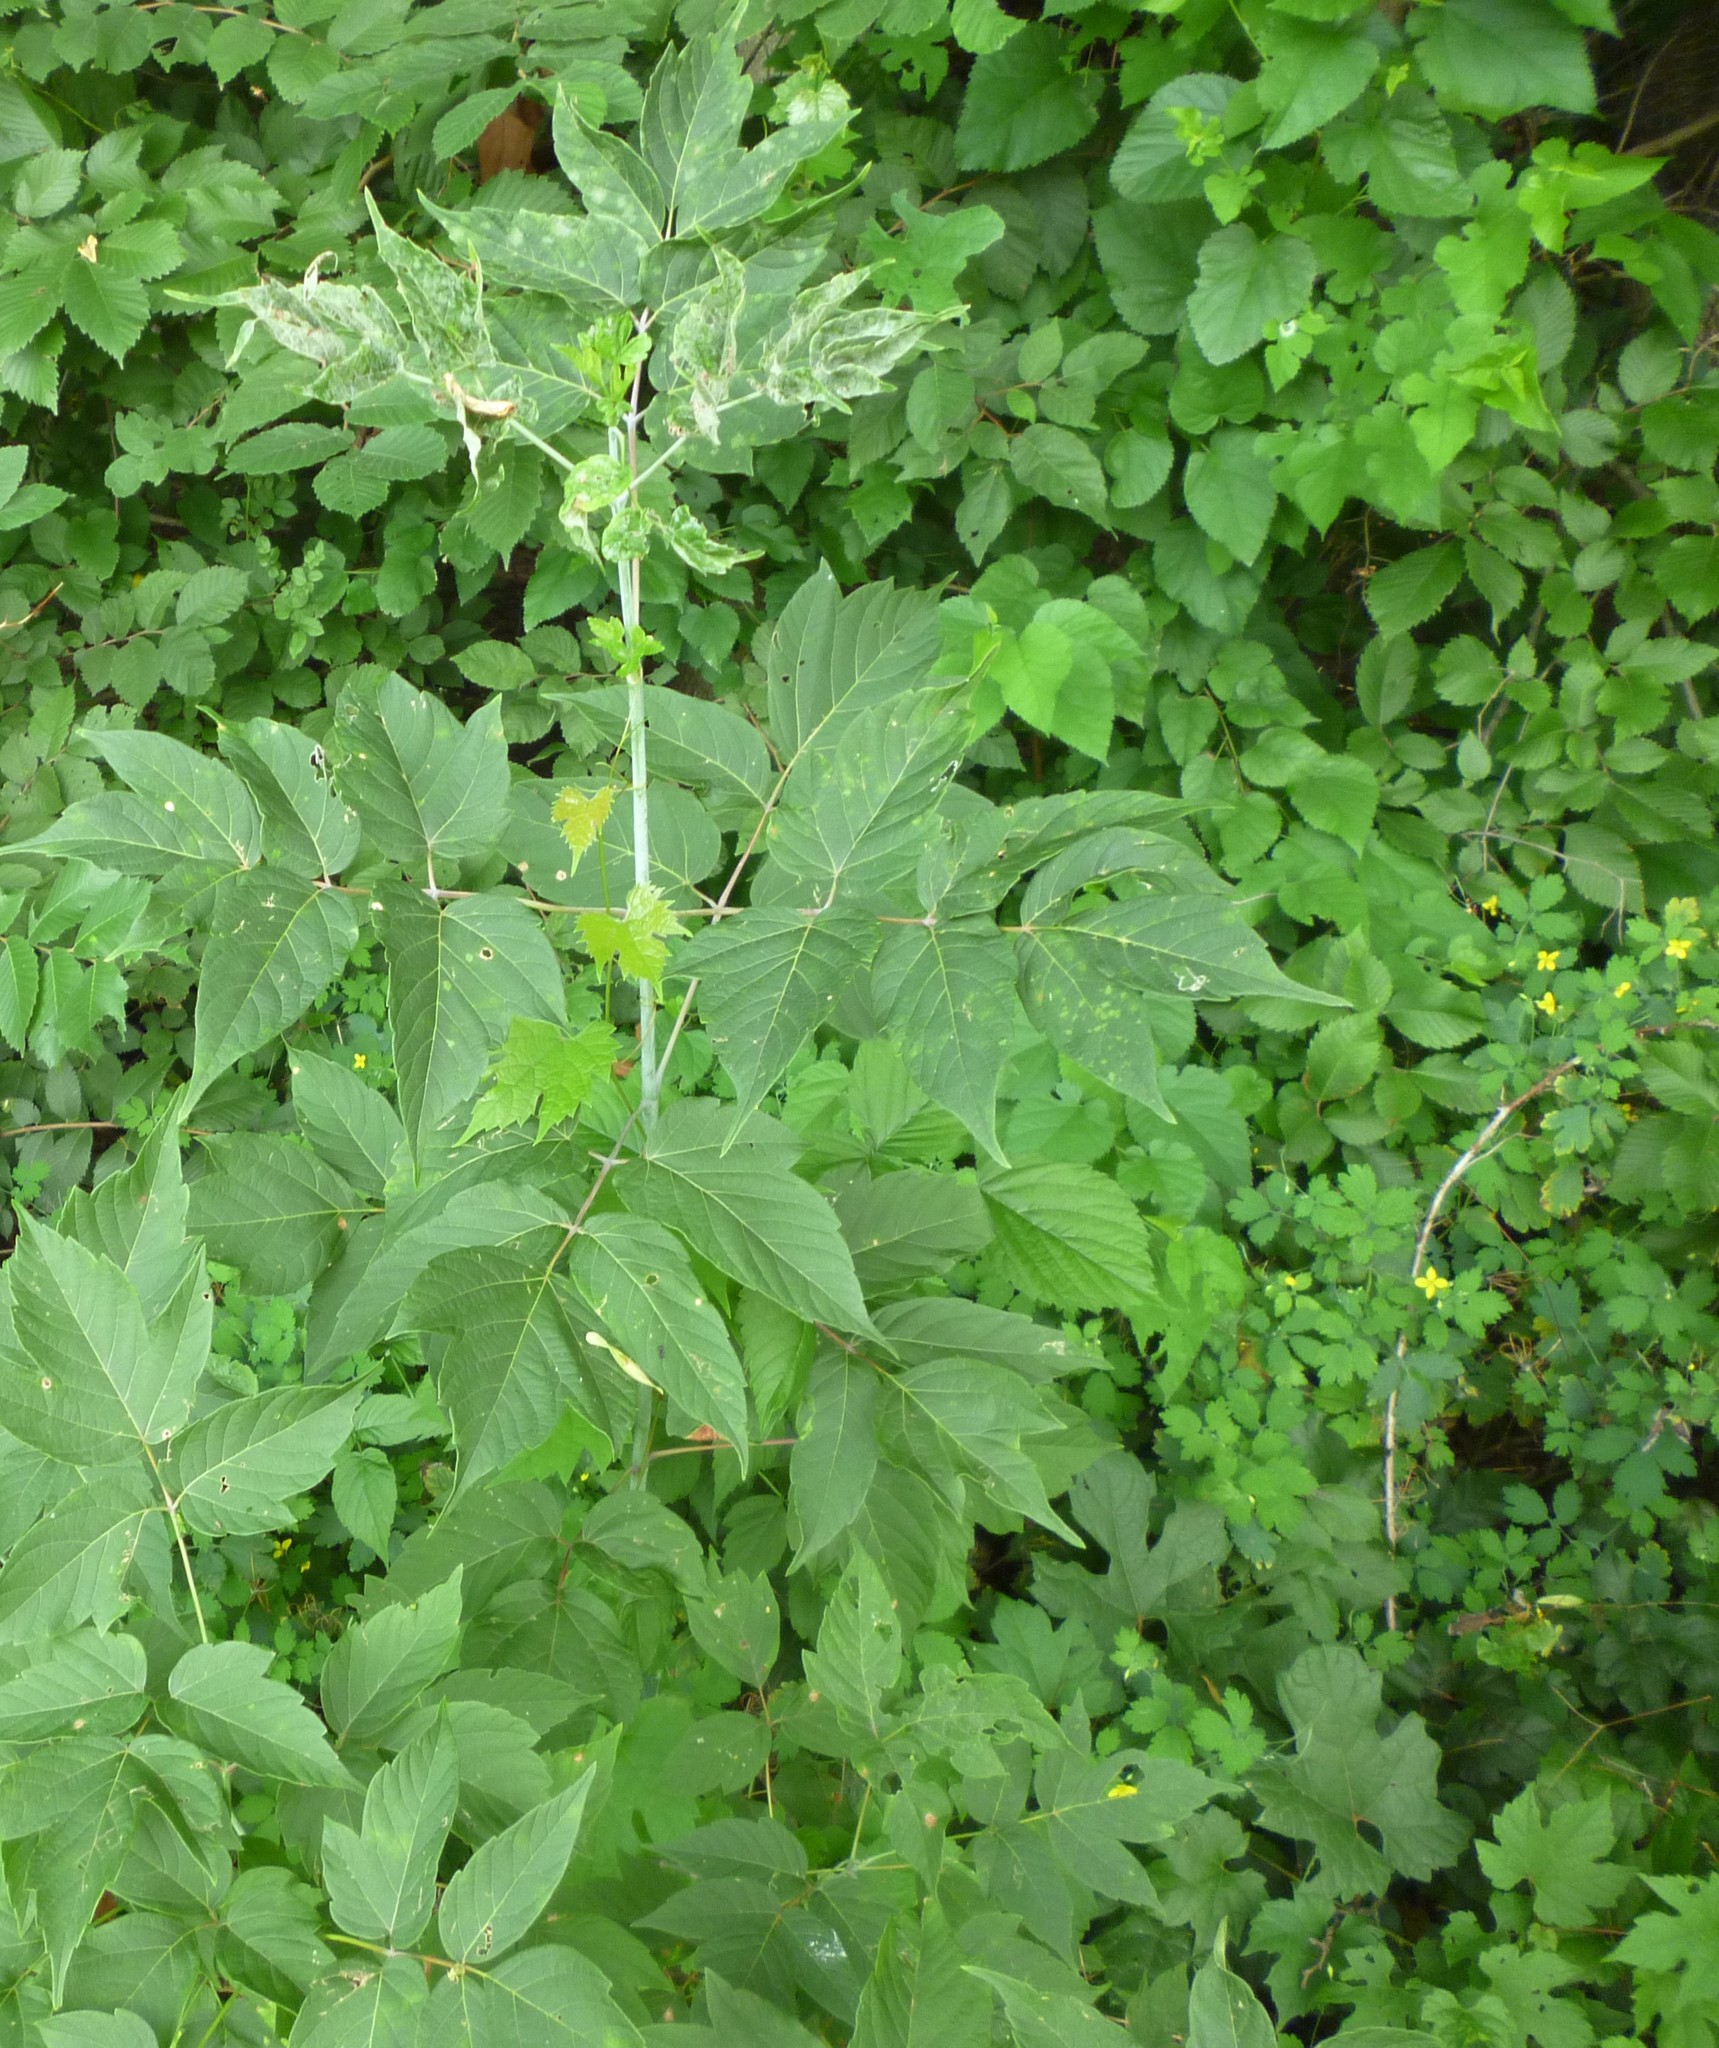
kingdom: Plantae
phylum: Tracheophyta
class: Magnoliopsida
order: Sapindales
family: Sapindaceae
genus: Acer
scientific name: Acer negundo
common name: Ashleaf maple
